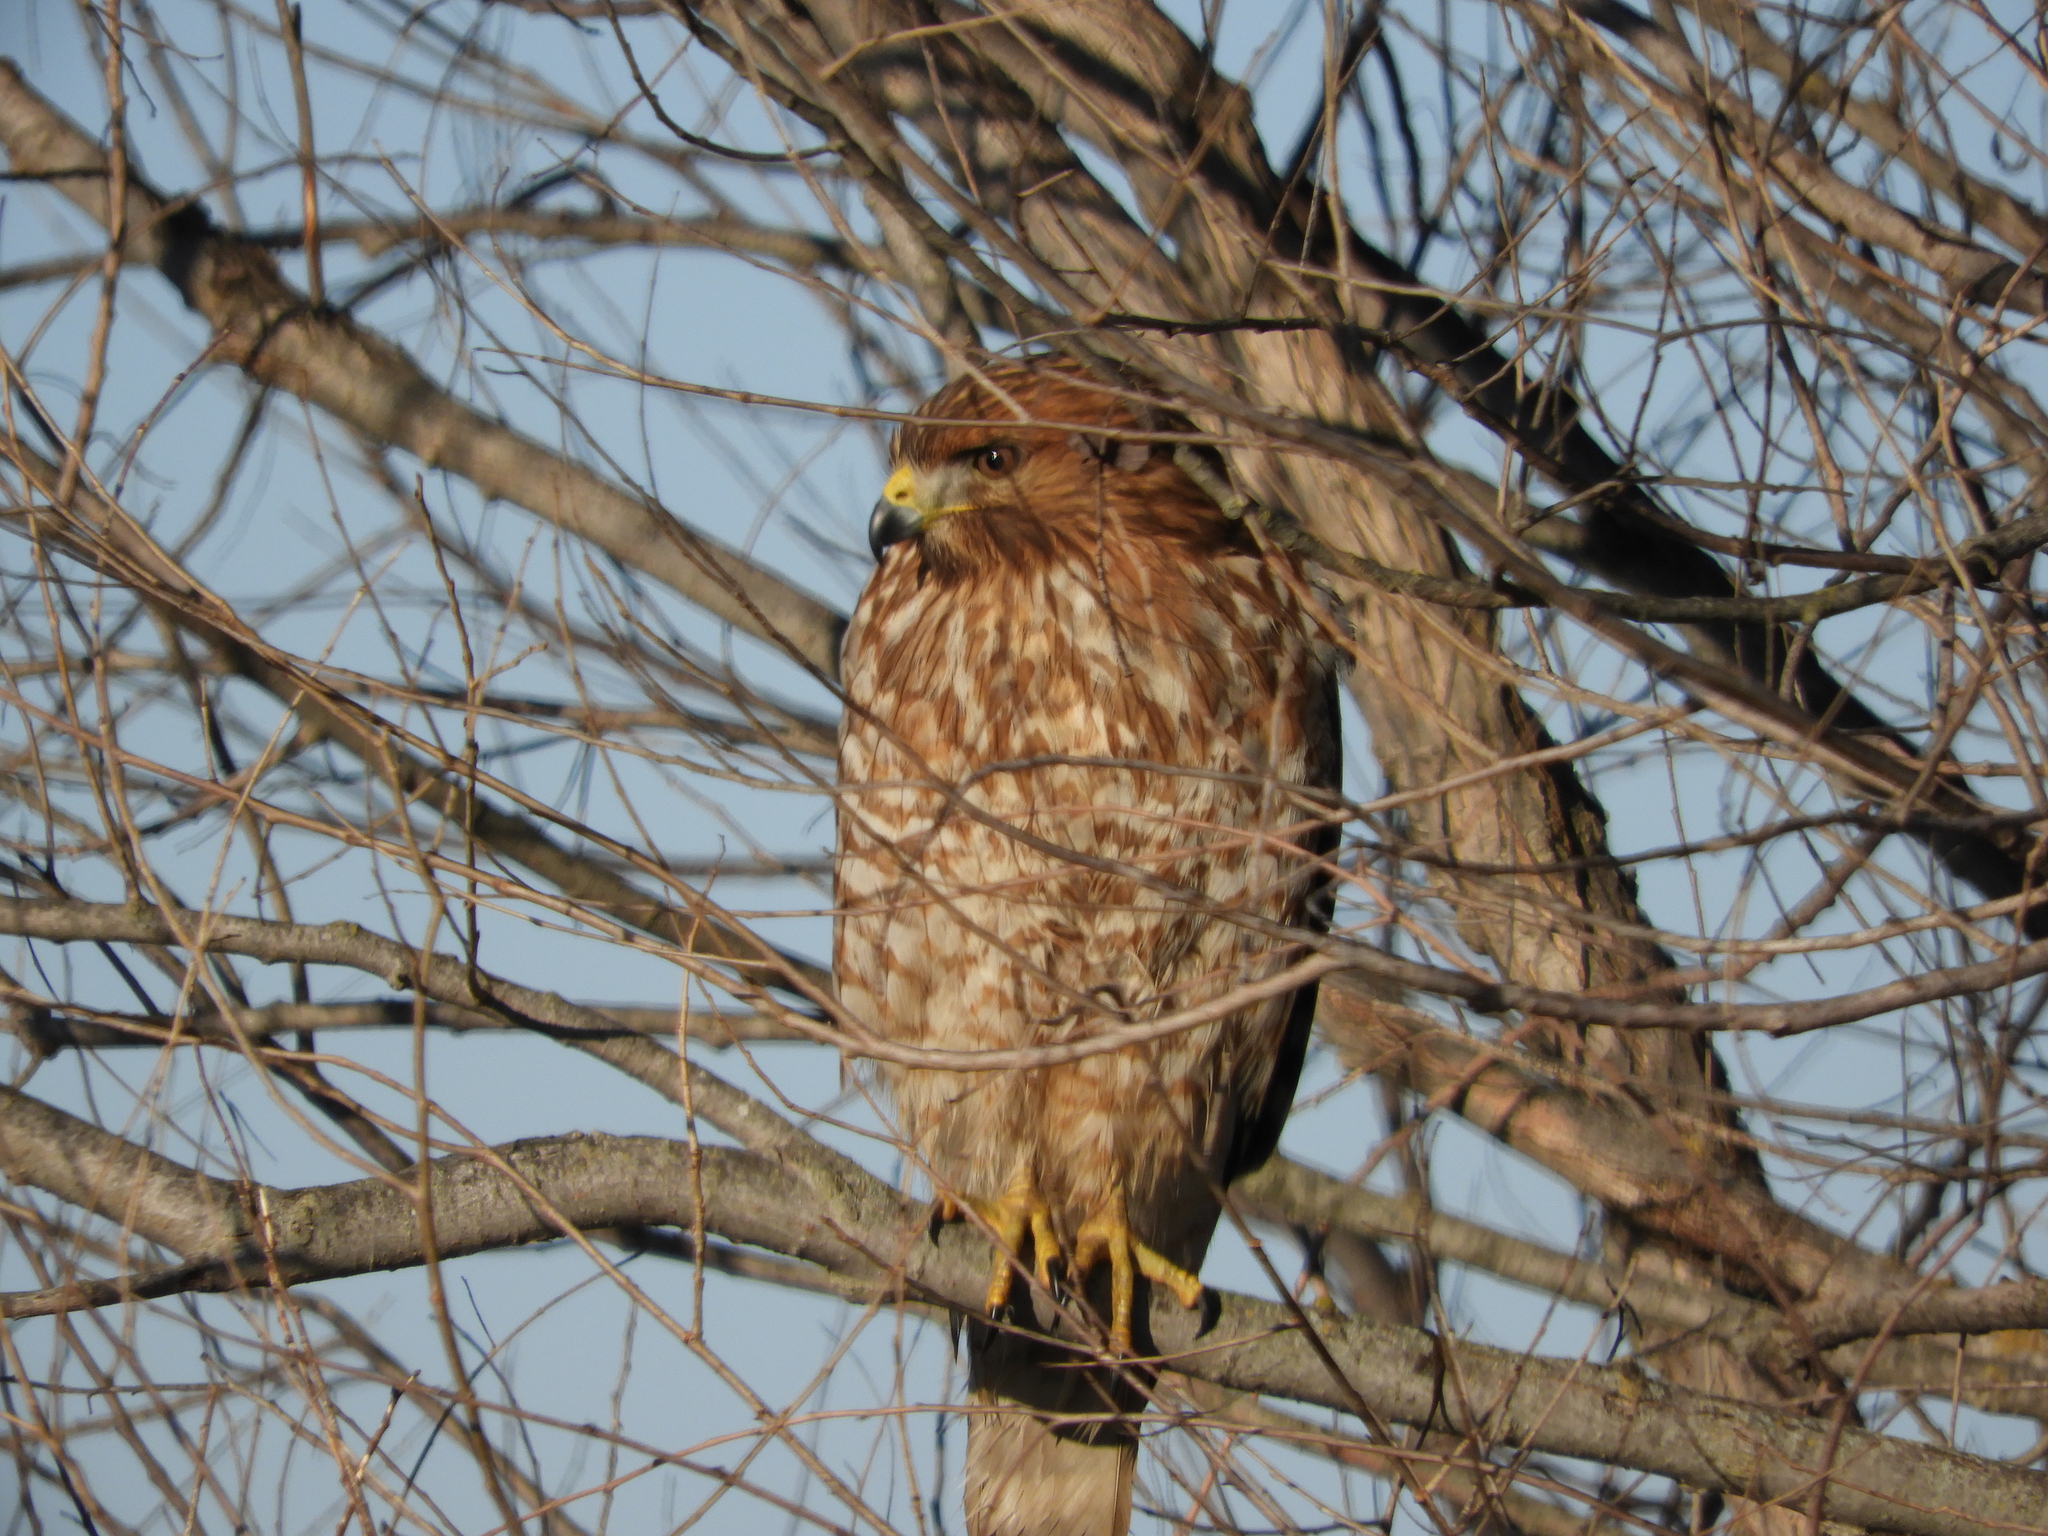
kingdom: Animalia
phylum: Chordata
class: Aves
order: Accipitriformes
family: Accipitridae
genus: Buteo
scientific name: Buteo lineatus
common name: Red-shouldered hawk
